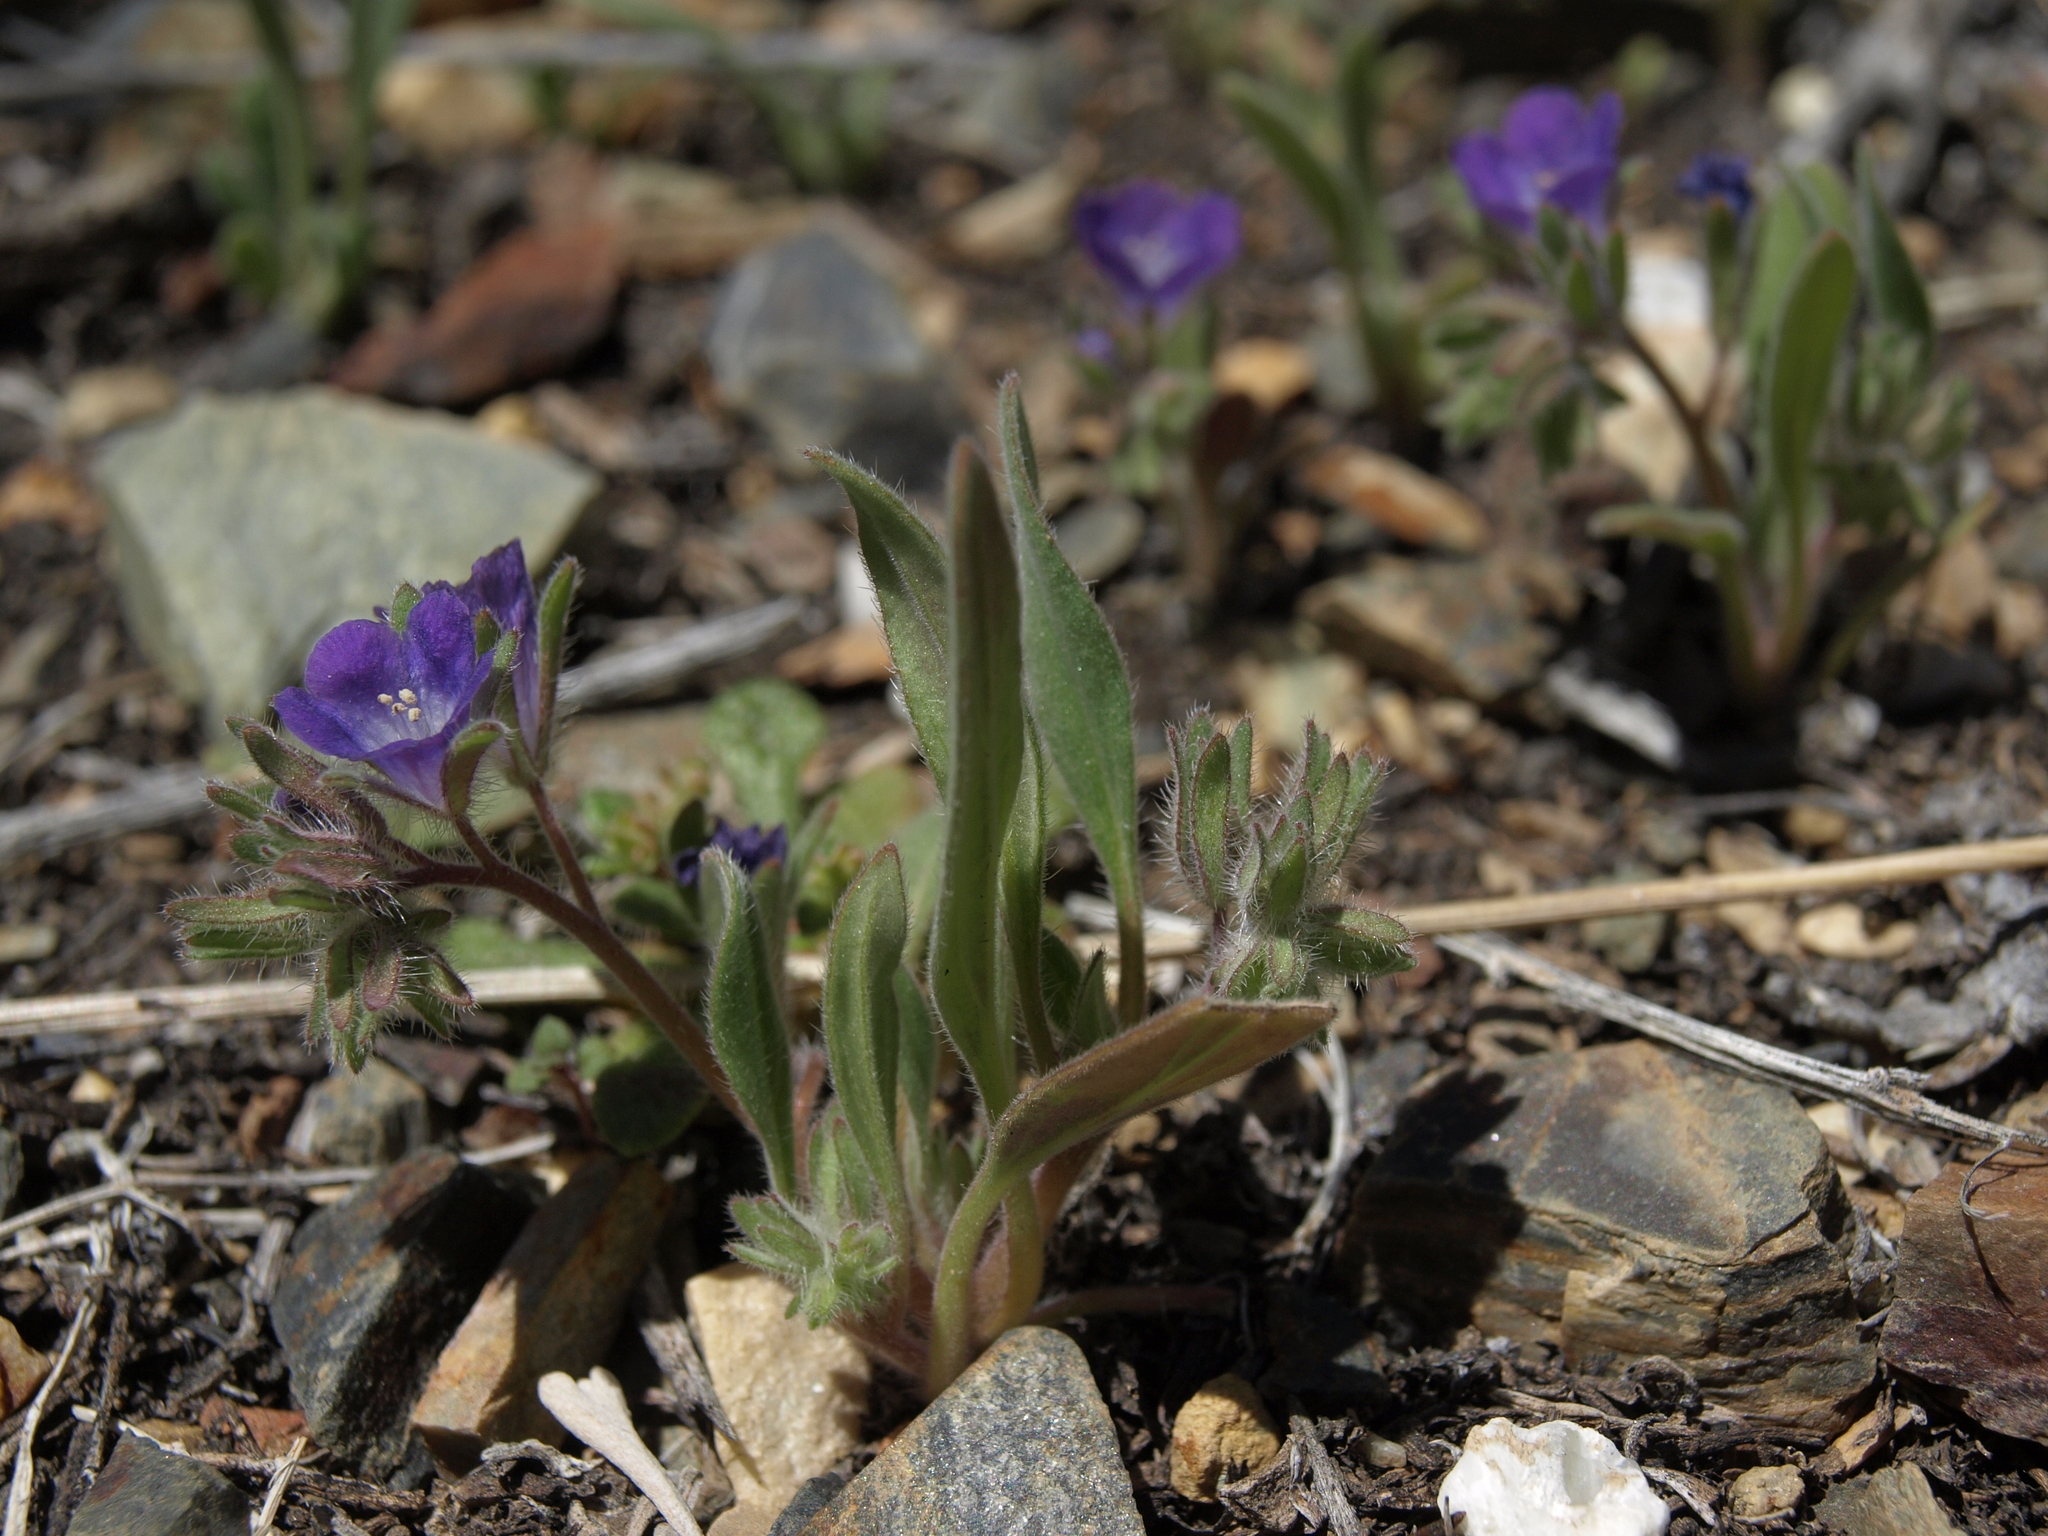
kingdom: Plantae
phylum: Tracheophyta
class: Magnoliopsida
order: Boraginales
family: Hydrophyllaceae
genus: Phacelia
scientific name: Phacelia curvipes
